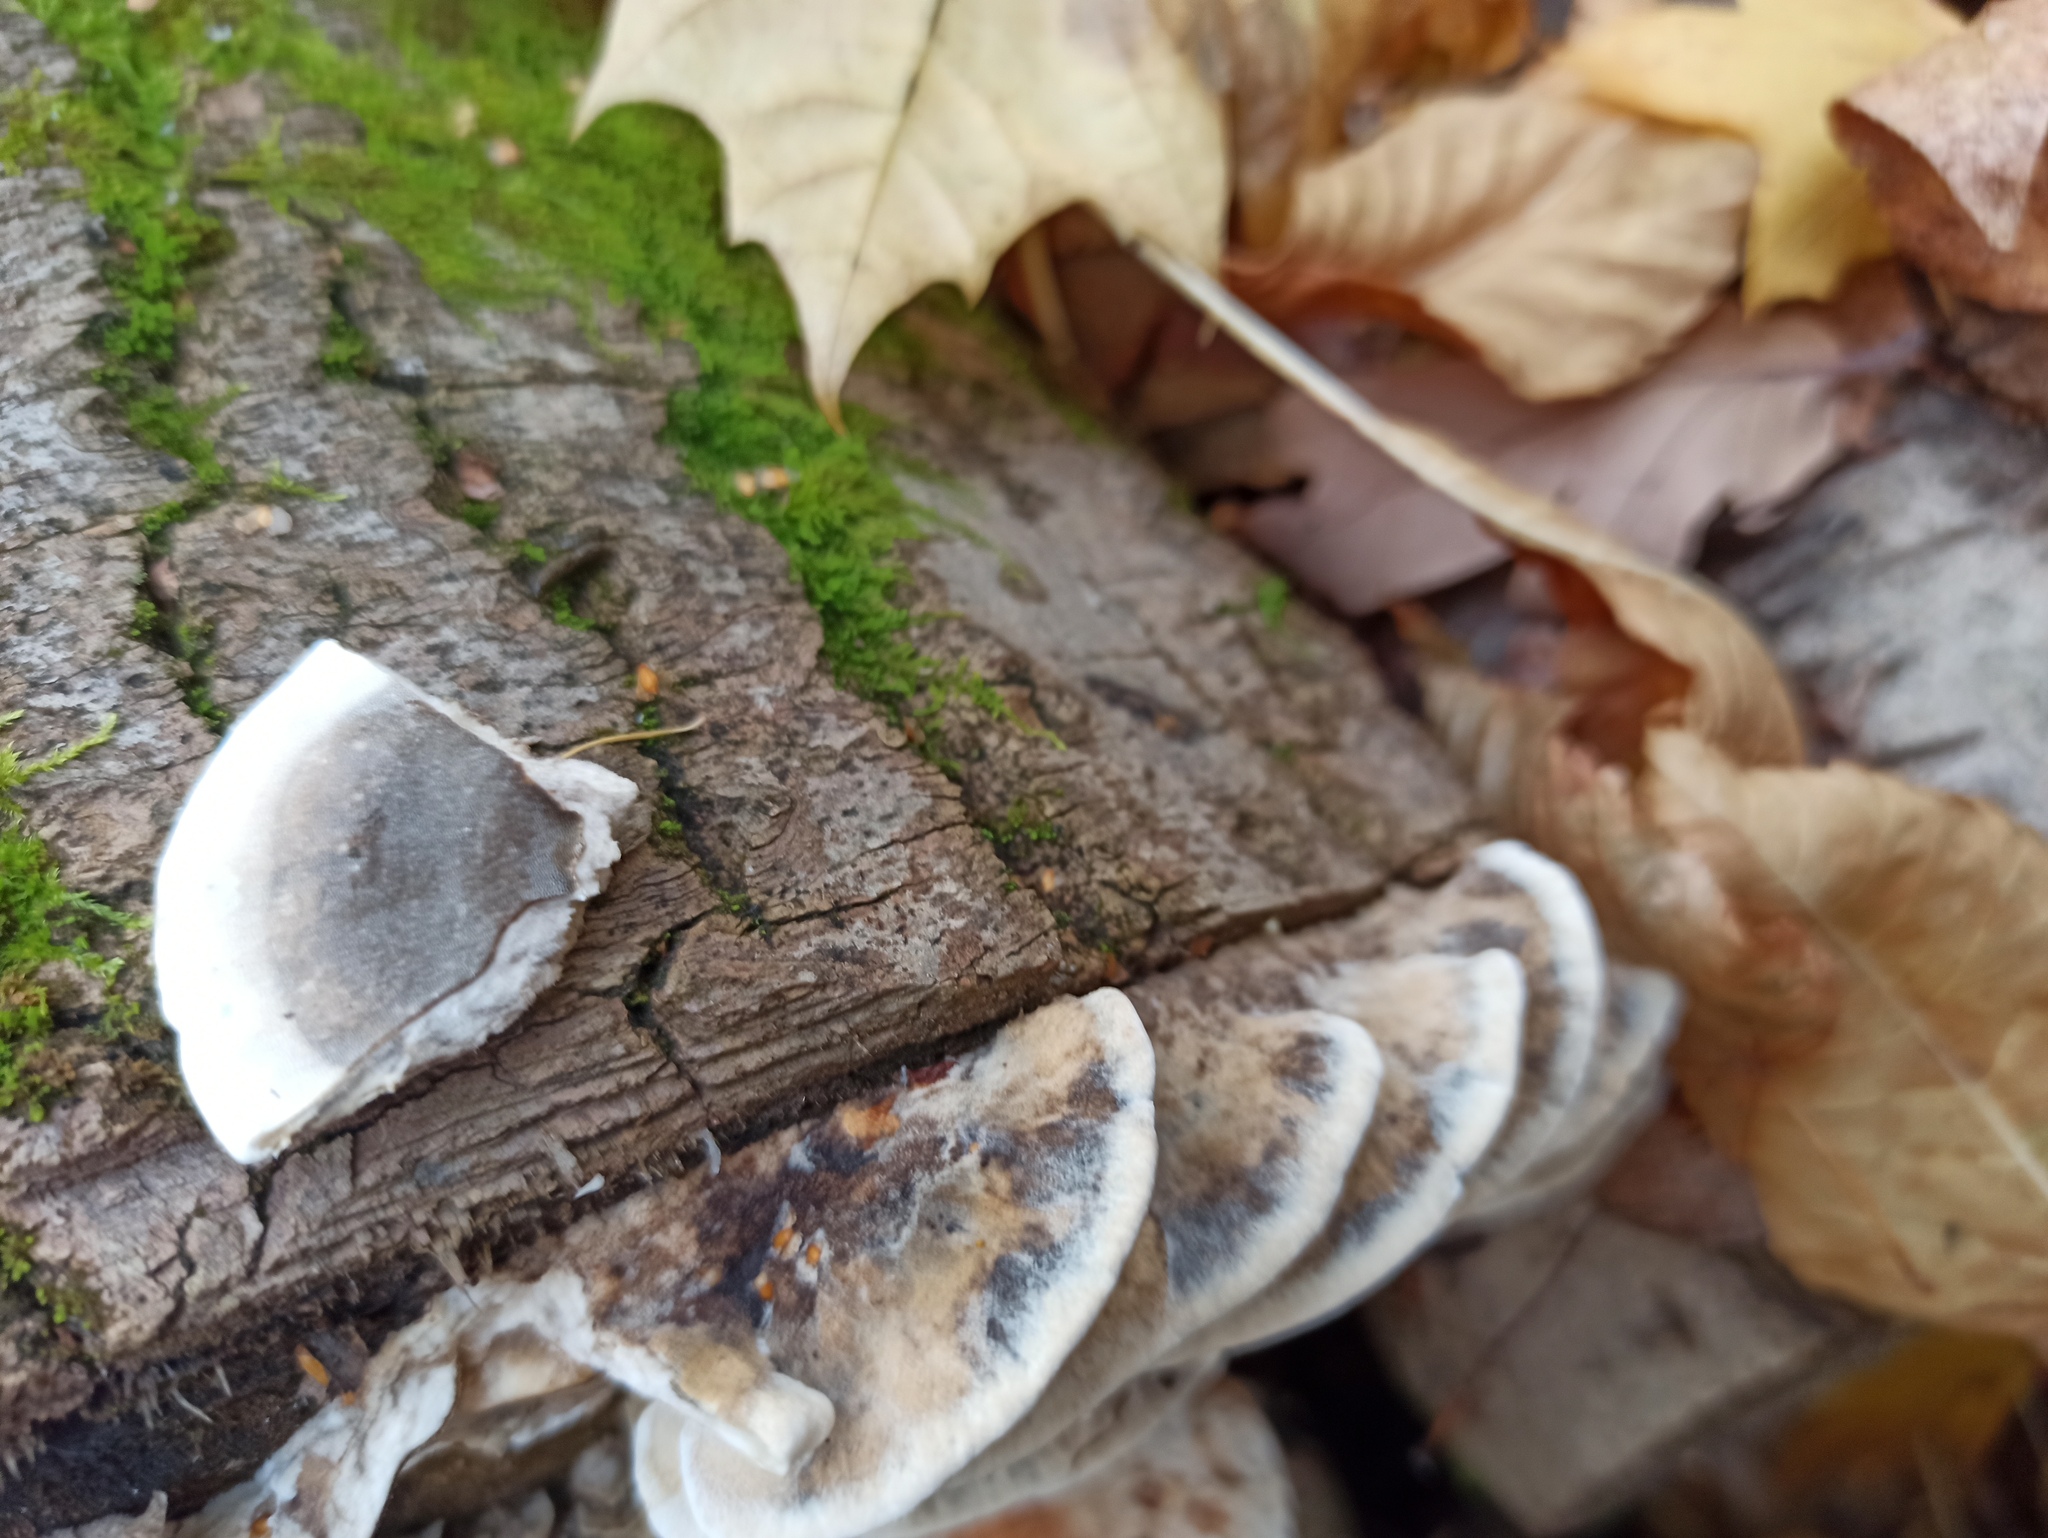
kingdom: Fungi
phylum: Basidiomycota
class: Agaricomycetes
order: Polyporales
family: Phanerochaetaceae
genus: Bjerkandera
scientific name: Bjerkandera adusta
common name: Smoky bracket
